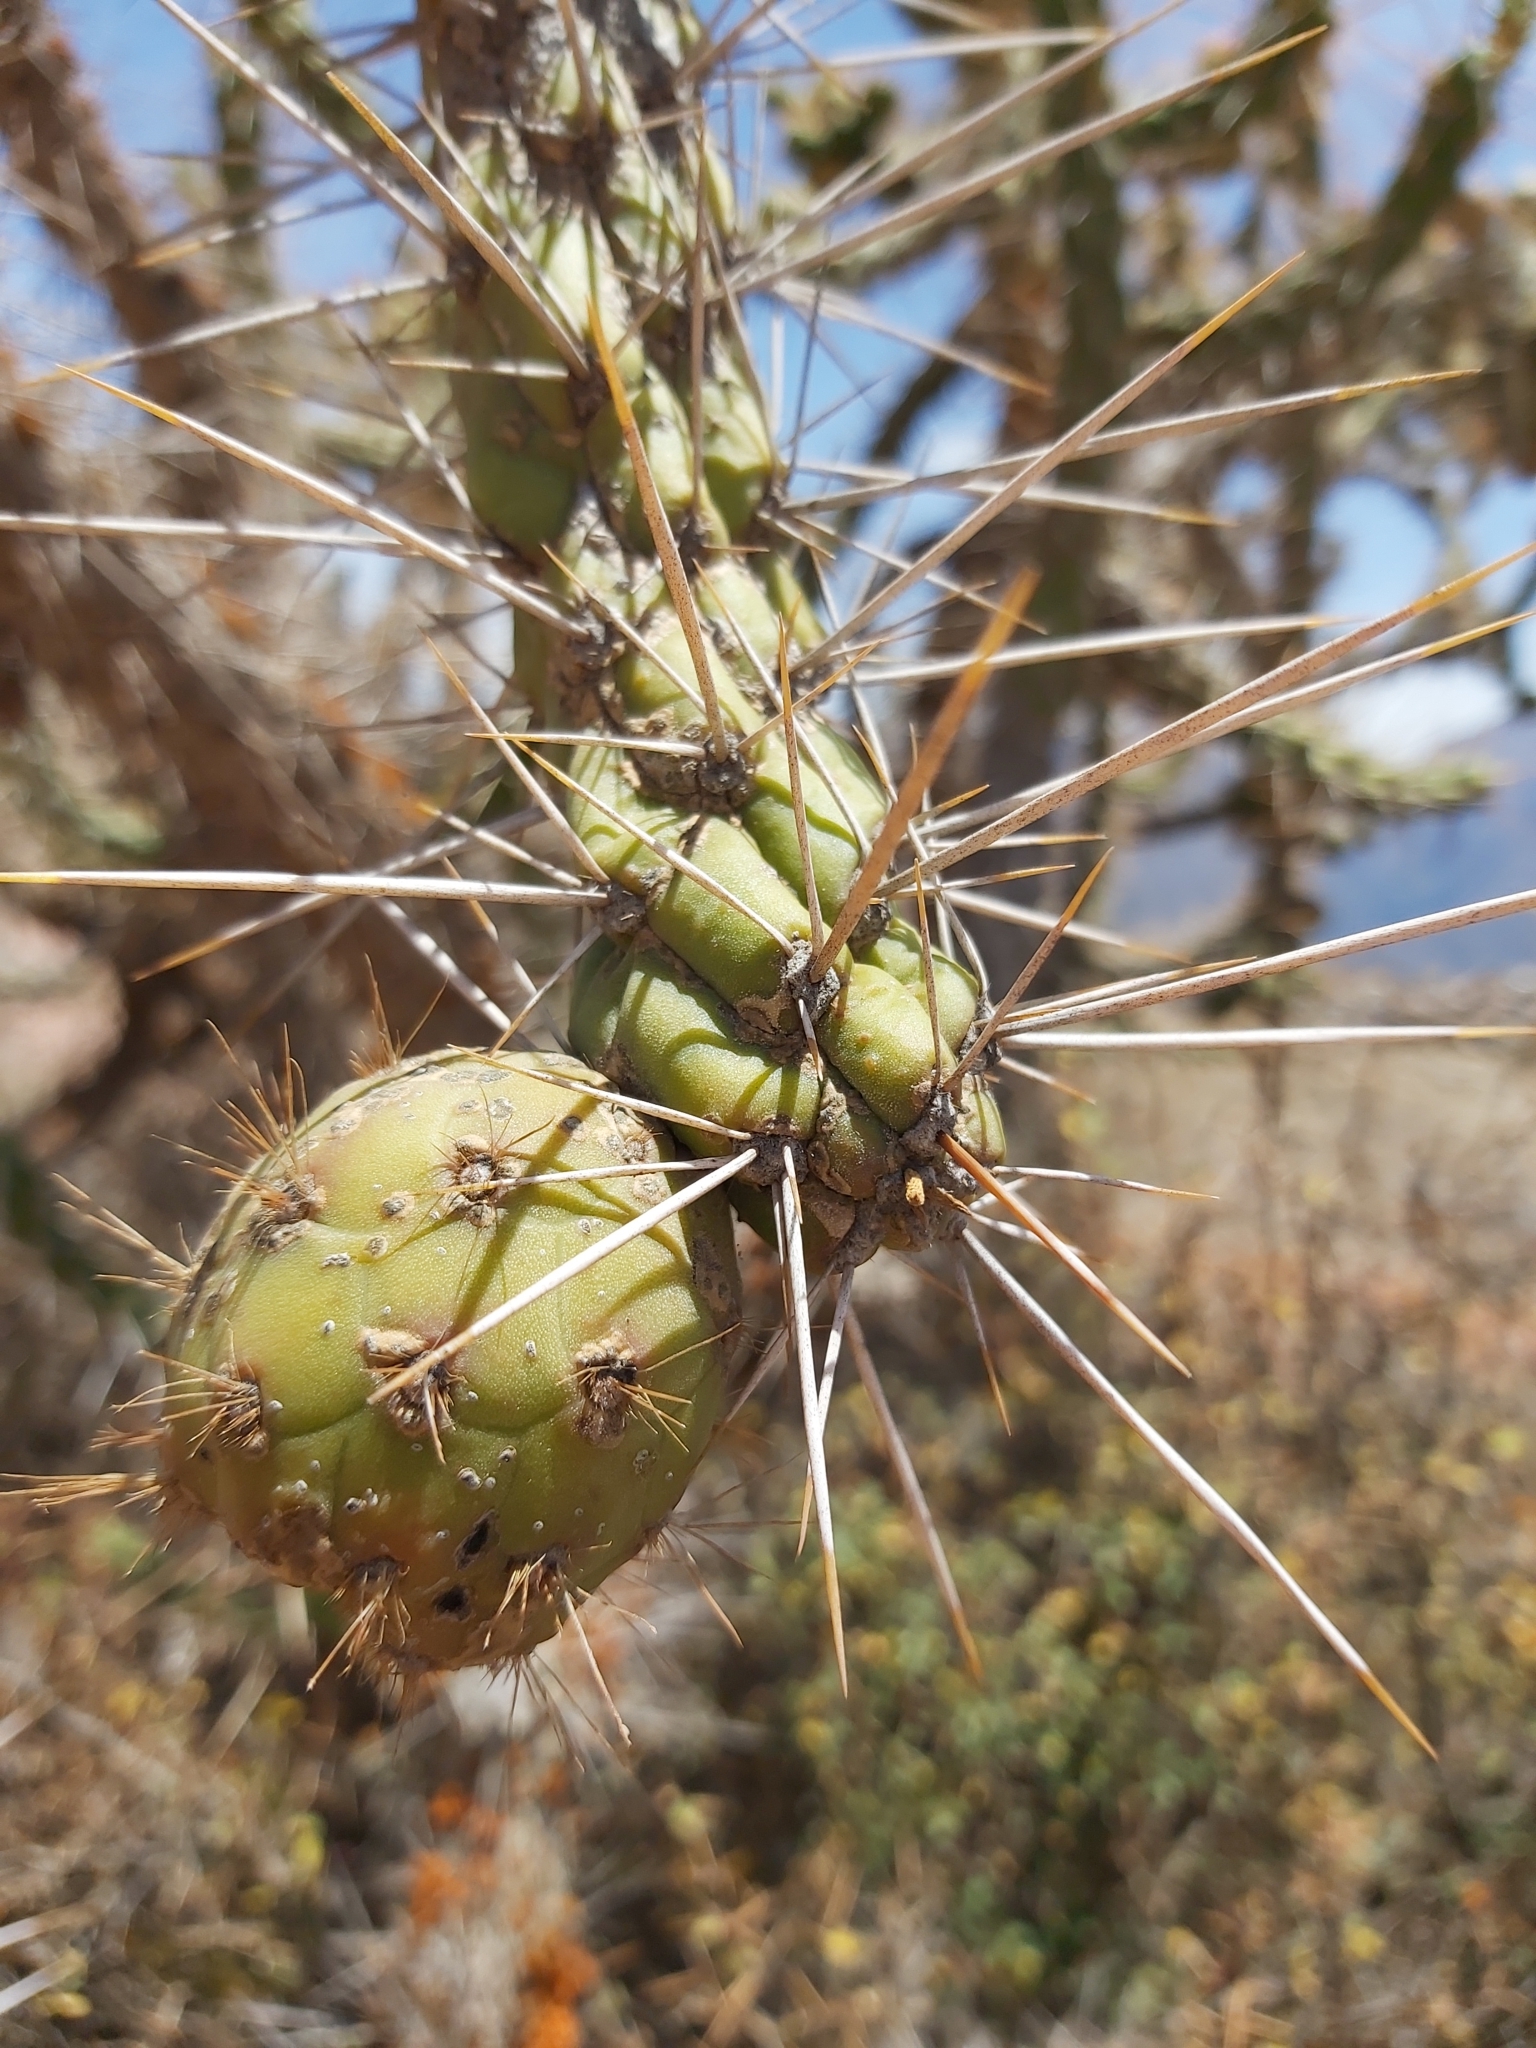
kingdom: Plantae
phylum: Tracheophyta
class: Magnoliopsida
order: Caryophyllales
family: Cactaceae
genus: Austrocylindropuntia
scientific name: Austrocylindropuntia subulata
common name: Eve's needle cactus
